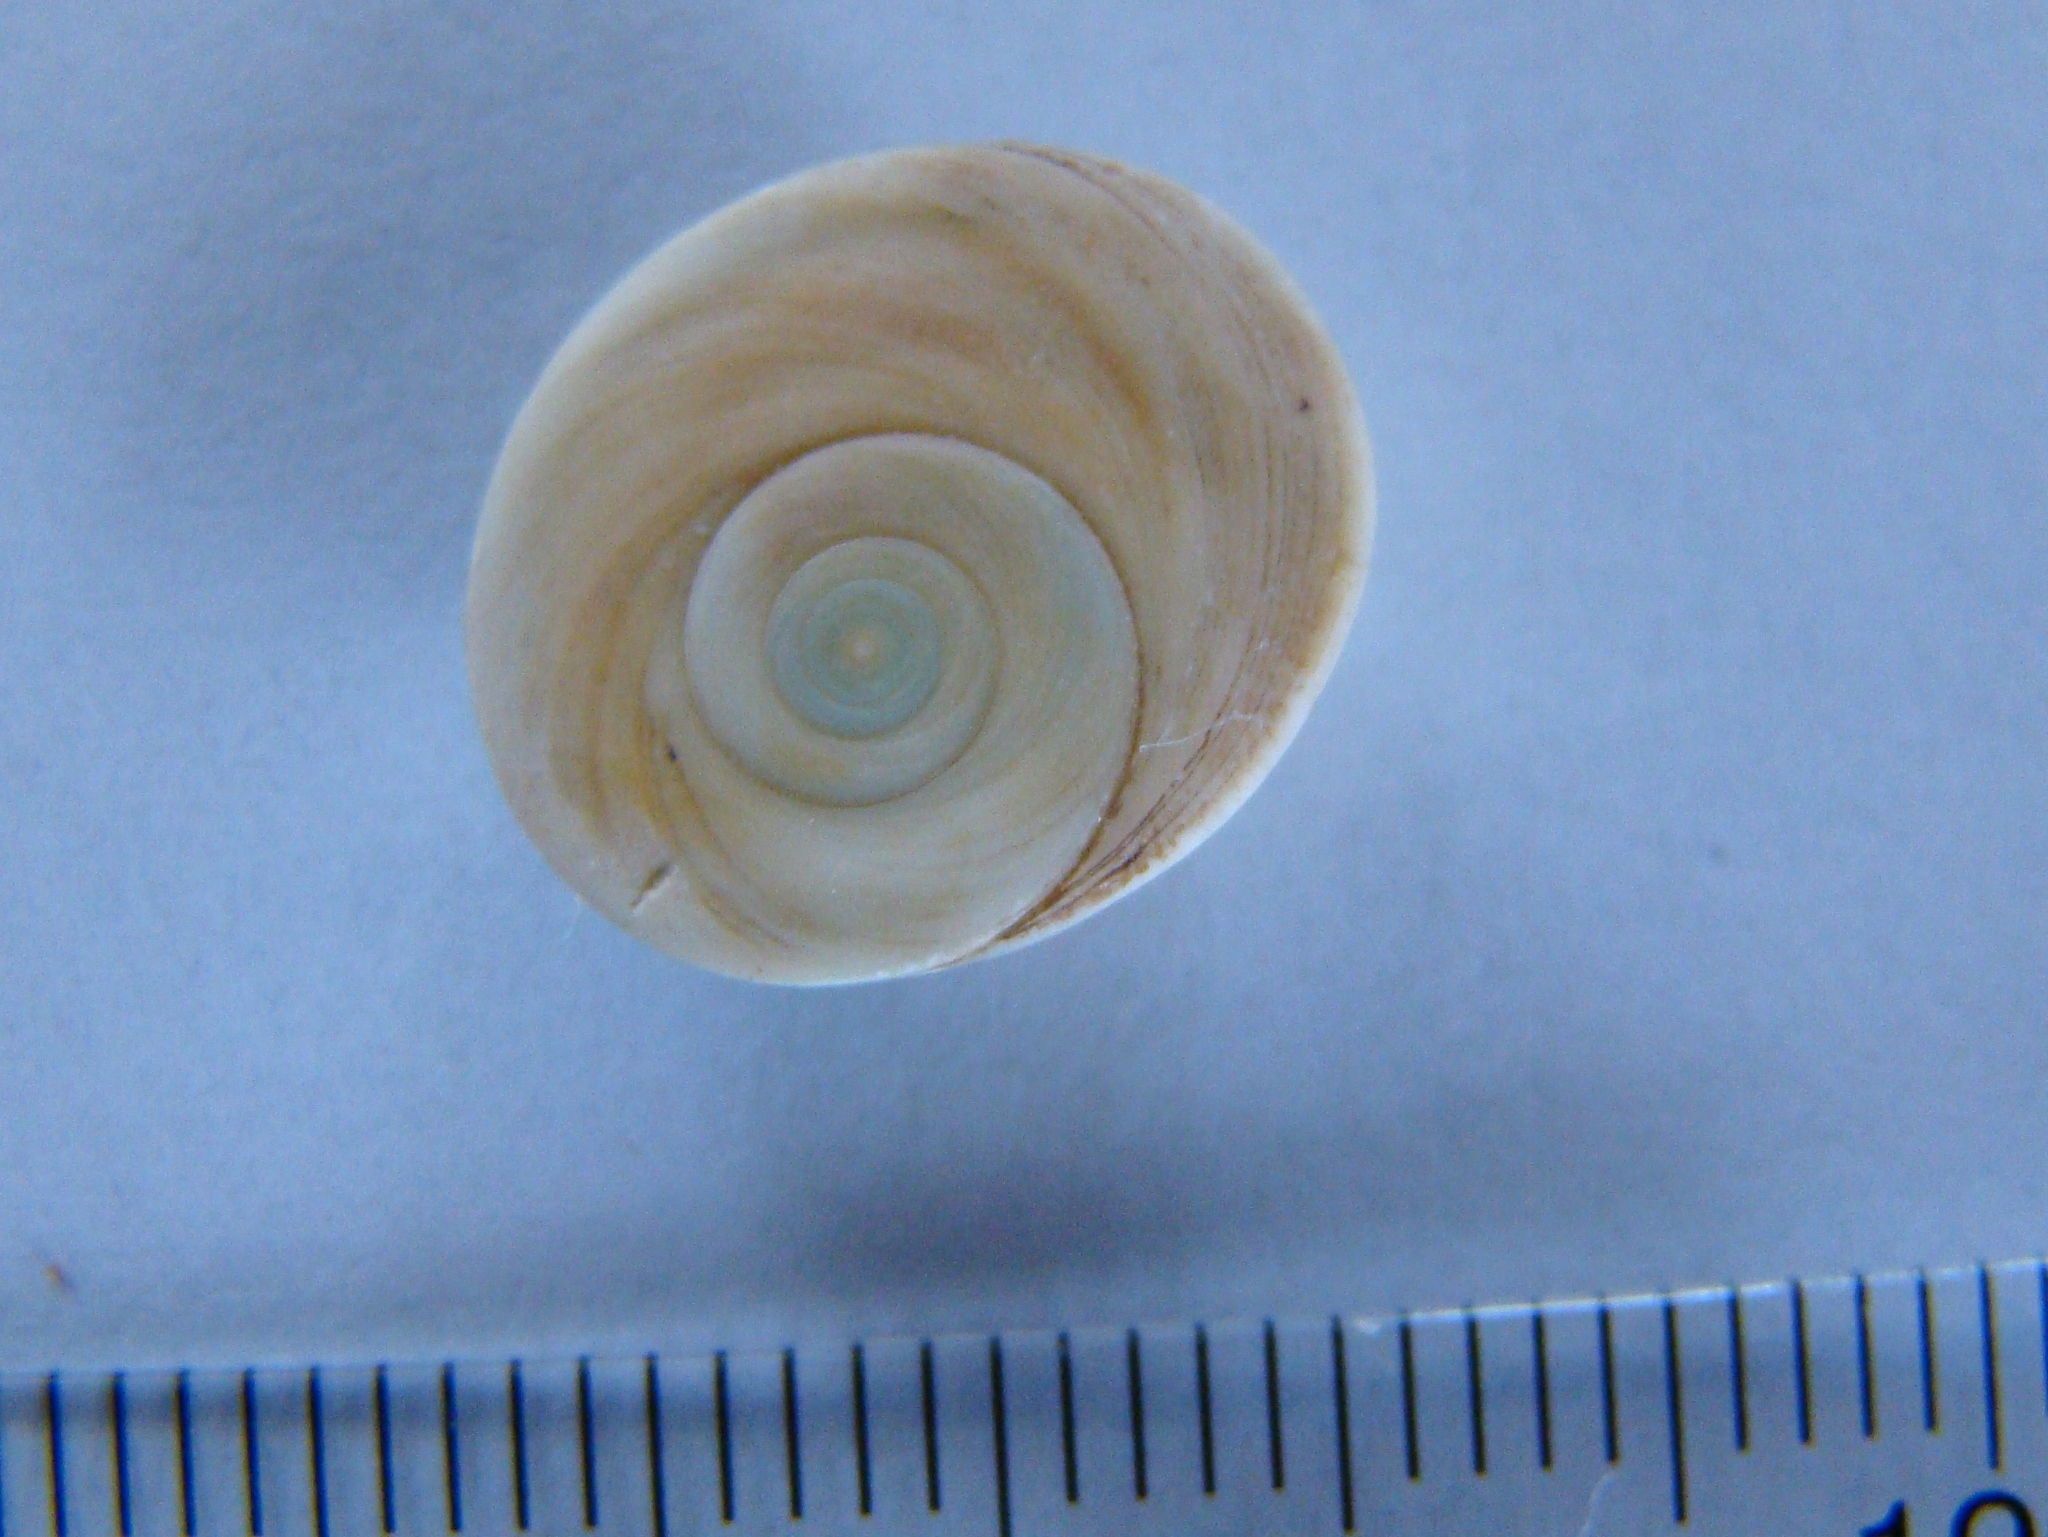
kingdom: Animalia
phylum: Mollusca
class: Gastropoda
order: Trochida
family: Turbinidae
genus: Lunella
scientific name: Lunella smaragda
